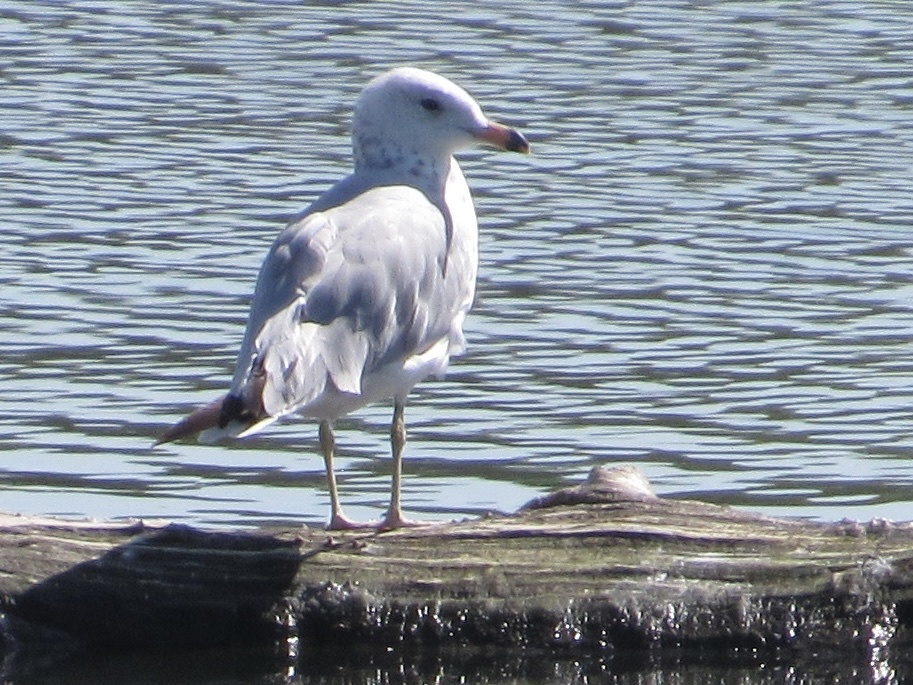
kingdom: Animalia
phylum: Chordata
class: Aves
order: Charadriiformes
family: Laridae
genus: Larus
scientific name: Larus delawarensis
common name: Ring-billed gull
